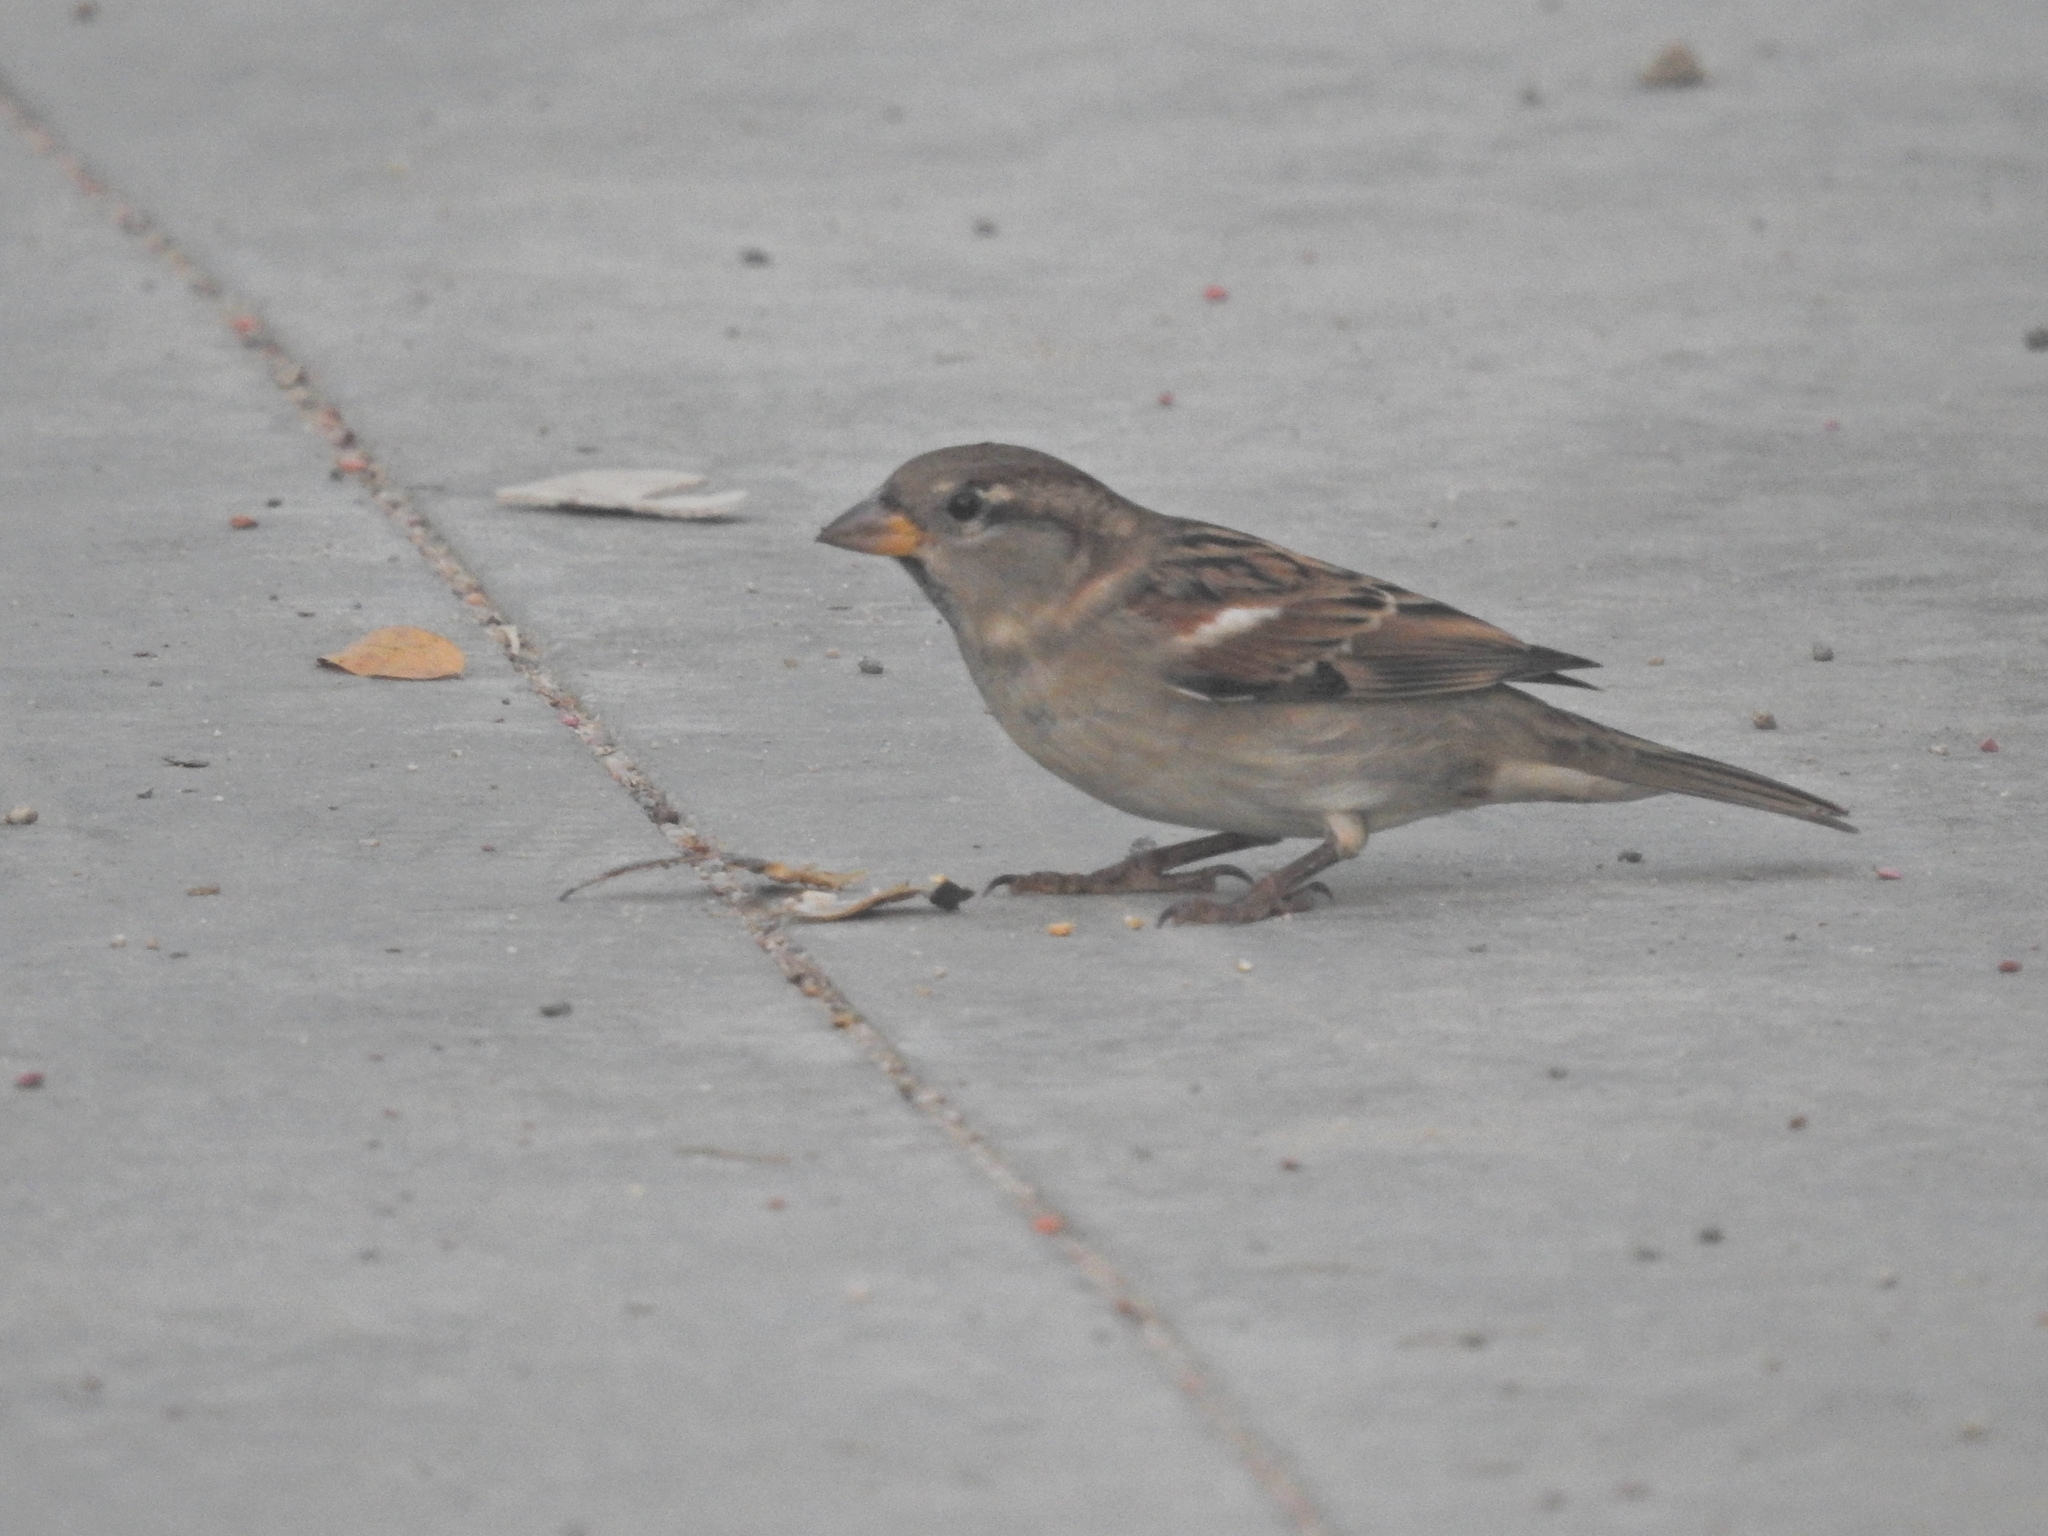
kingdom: Animalia
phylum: Chordata
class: Aves
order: Passeriformes
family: Passeridae
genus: Passer
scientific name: Passer domesticus
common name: House sparrow
